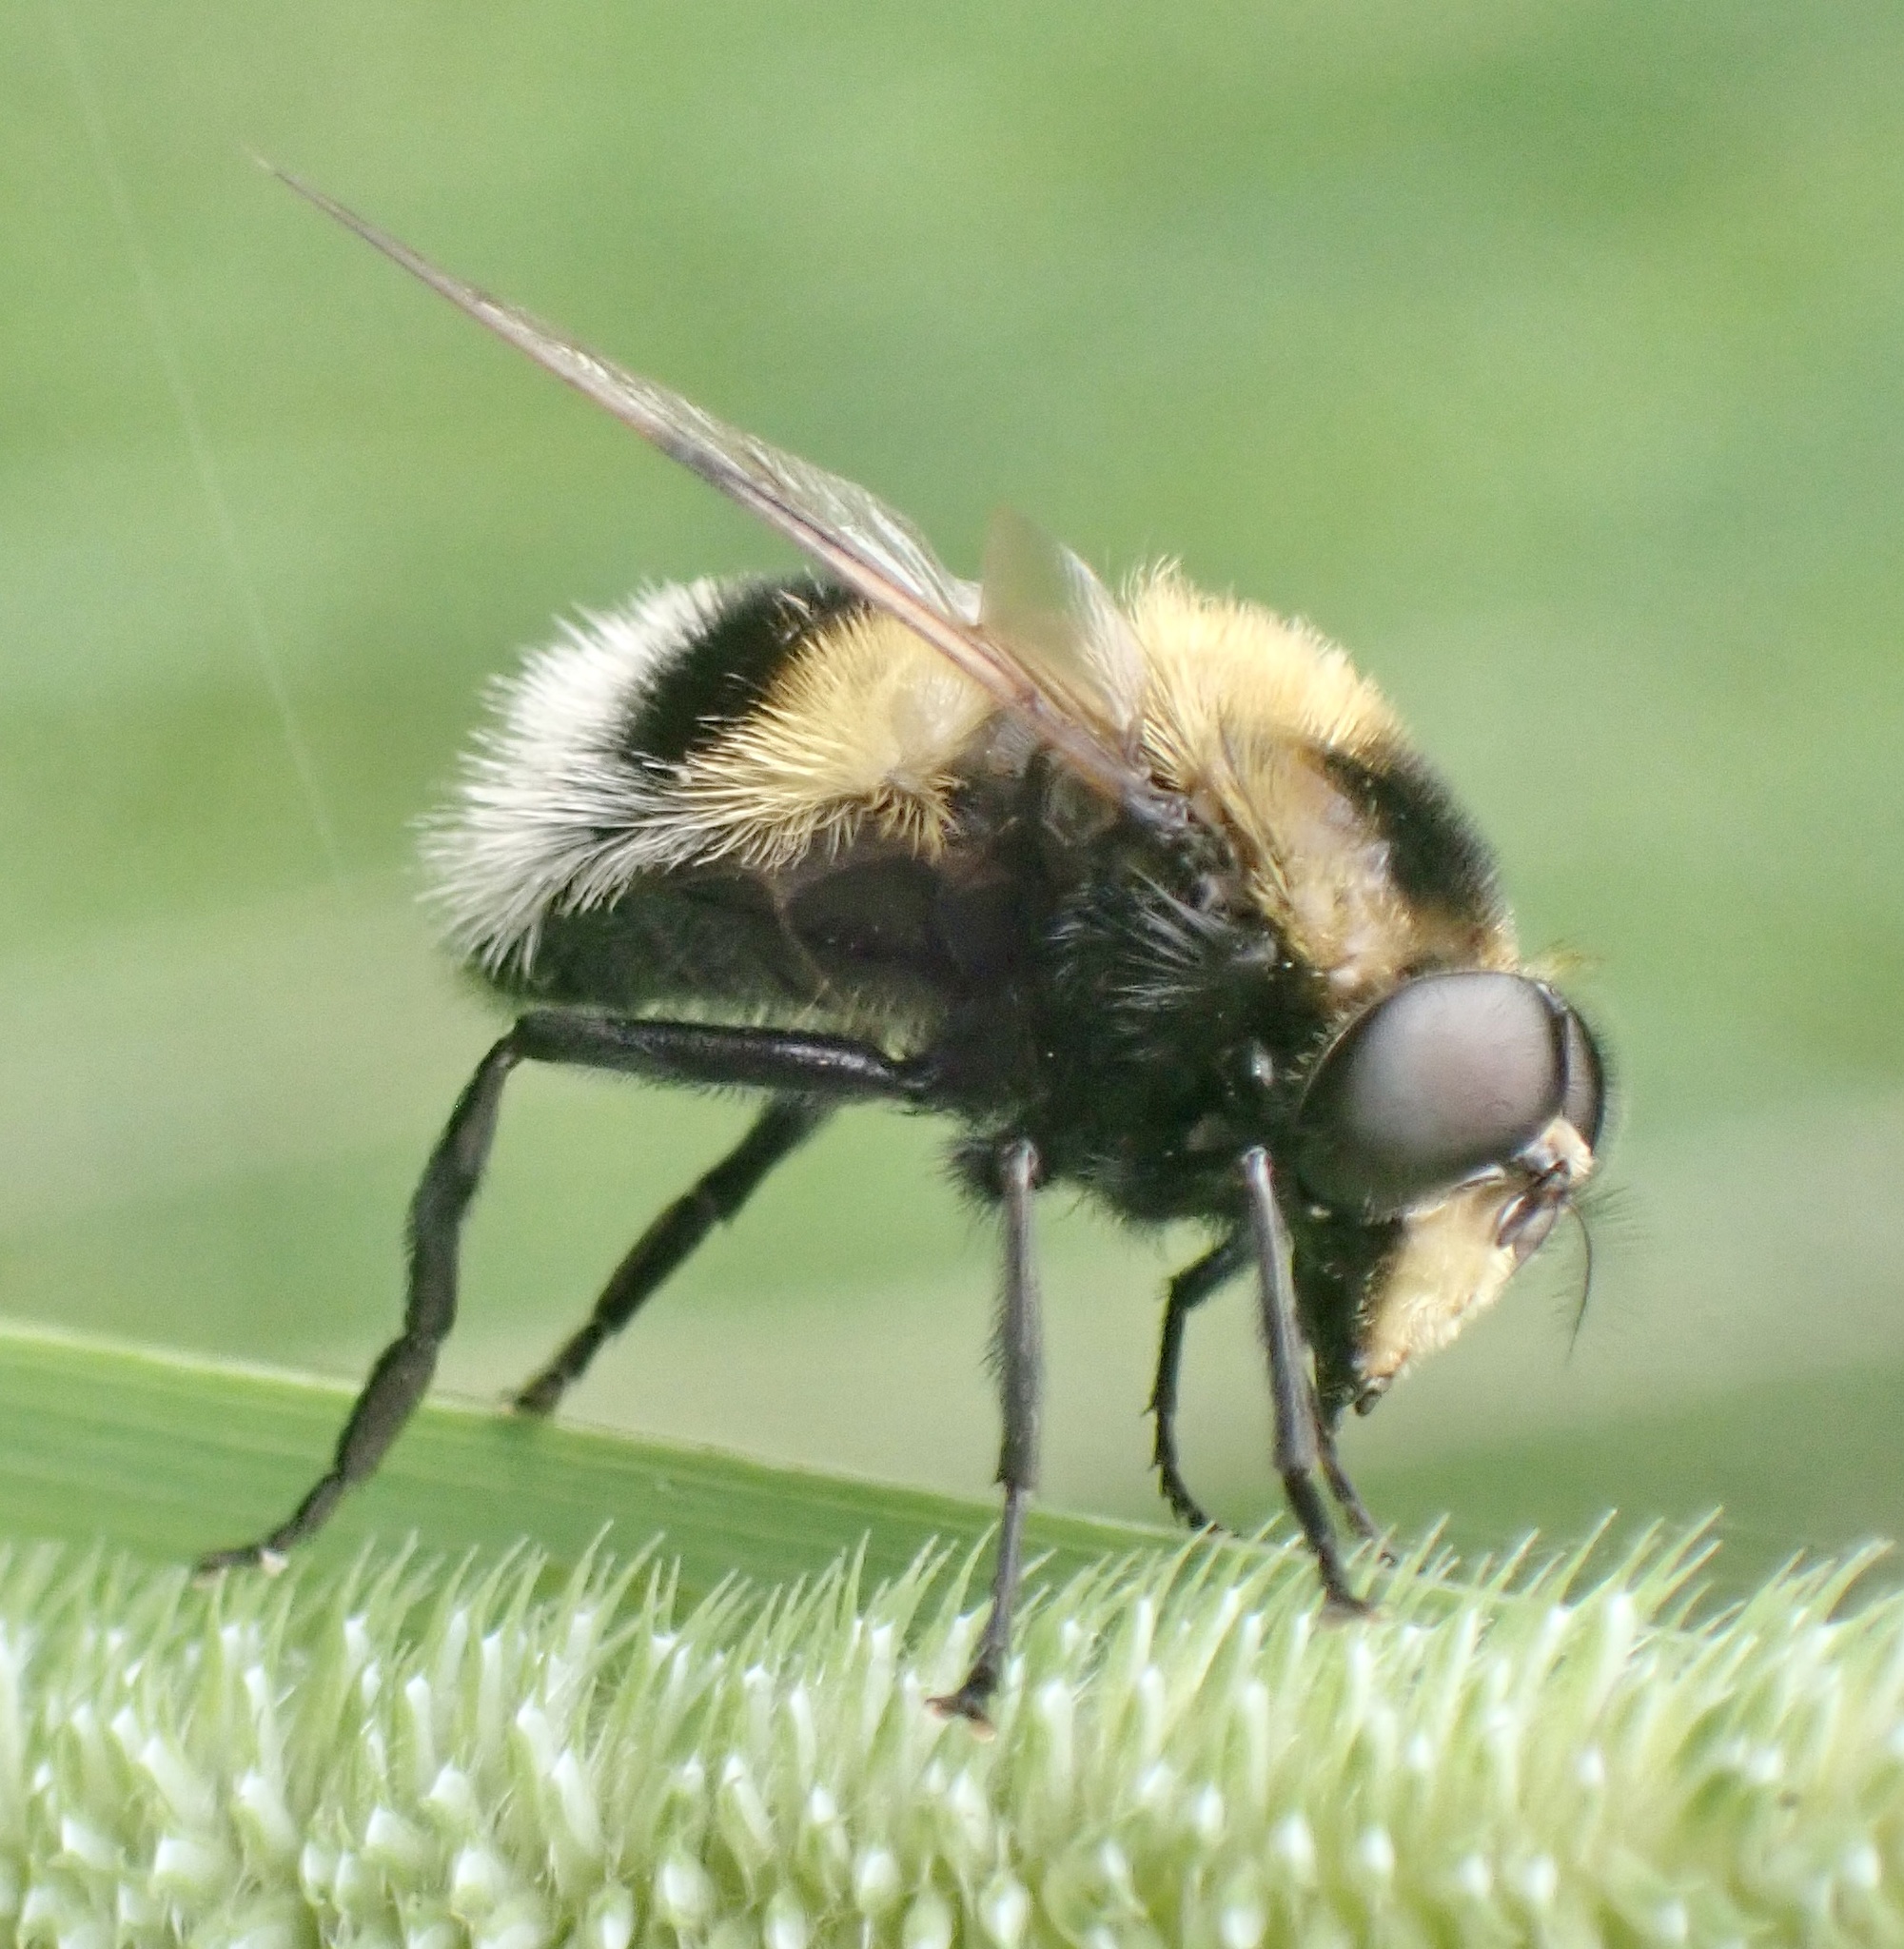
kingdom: Animalia
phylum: Arthropoda
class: Insecta
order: Diptera
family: Syrphidae
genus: Volucella
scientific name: Volucella bombylans
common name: Bumble bee hover fly
